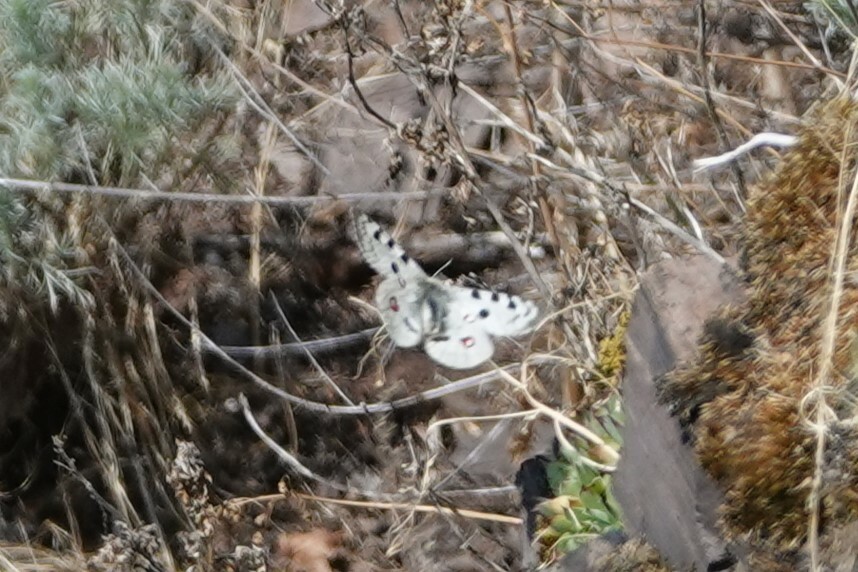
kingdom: Animalia
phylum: Arthropoda
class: Insecta
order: Lepidoptera
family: Papilionidae
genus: Parnassius
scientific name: Parnassius apollo
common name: Apollo
